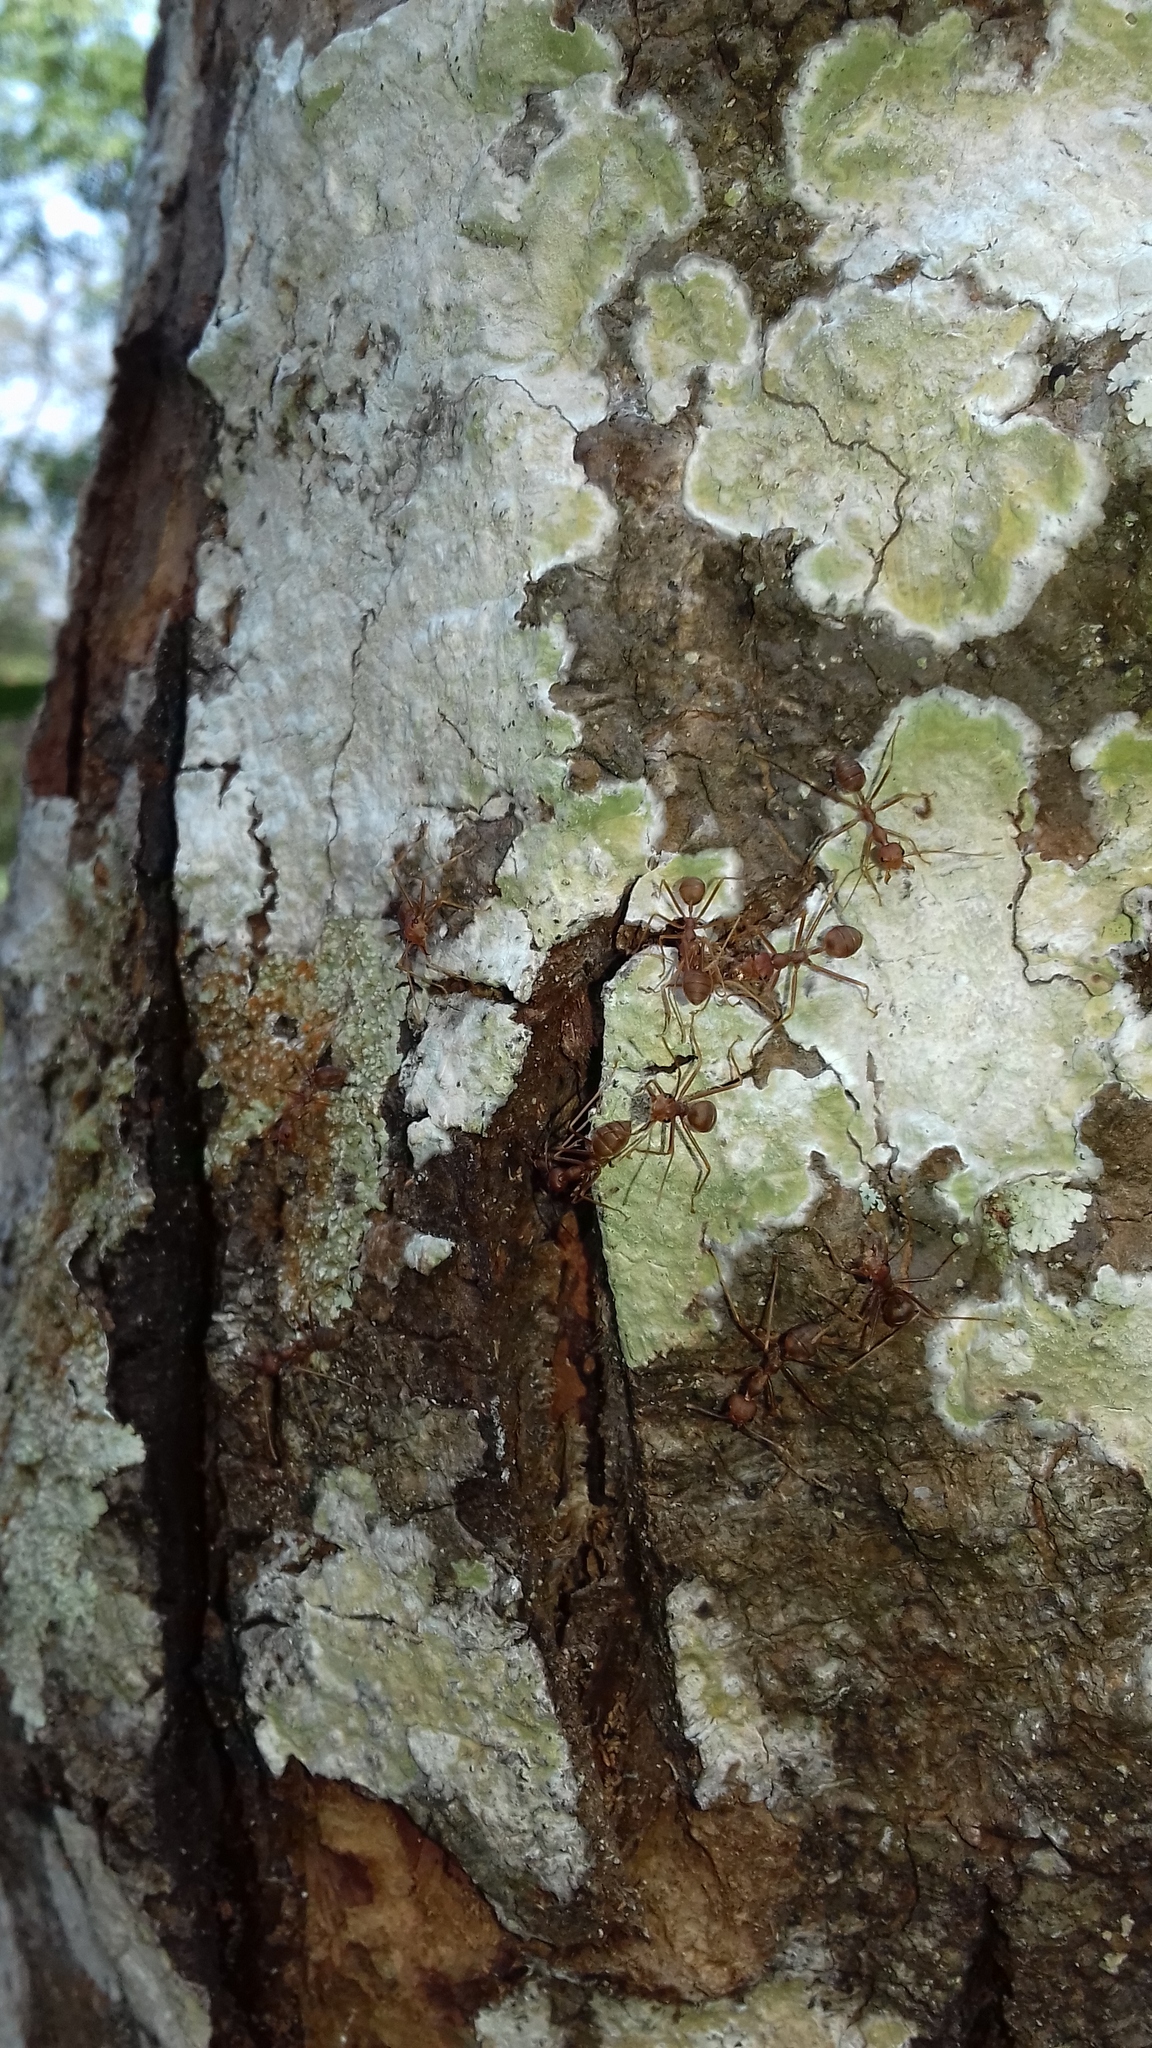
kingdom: Animalia
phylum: Arthropoda
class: Insecta
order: Hymenoptera
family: Formicidae
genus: Oecophylla
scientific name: Oecophylla smaragdina
